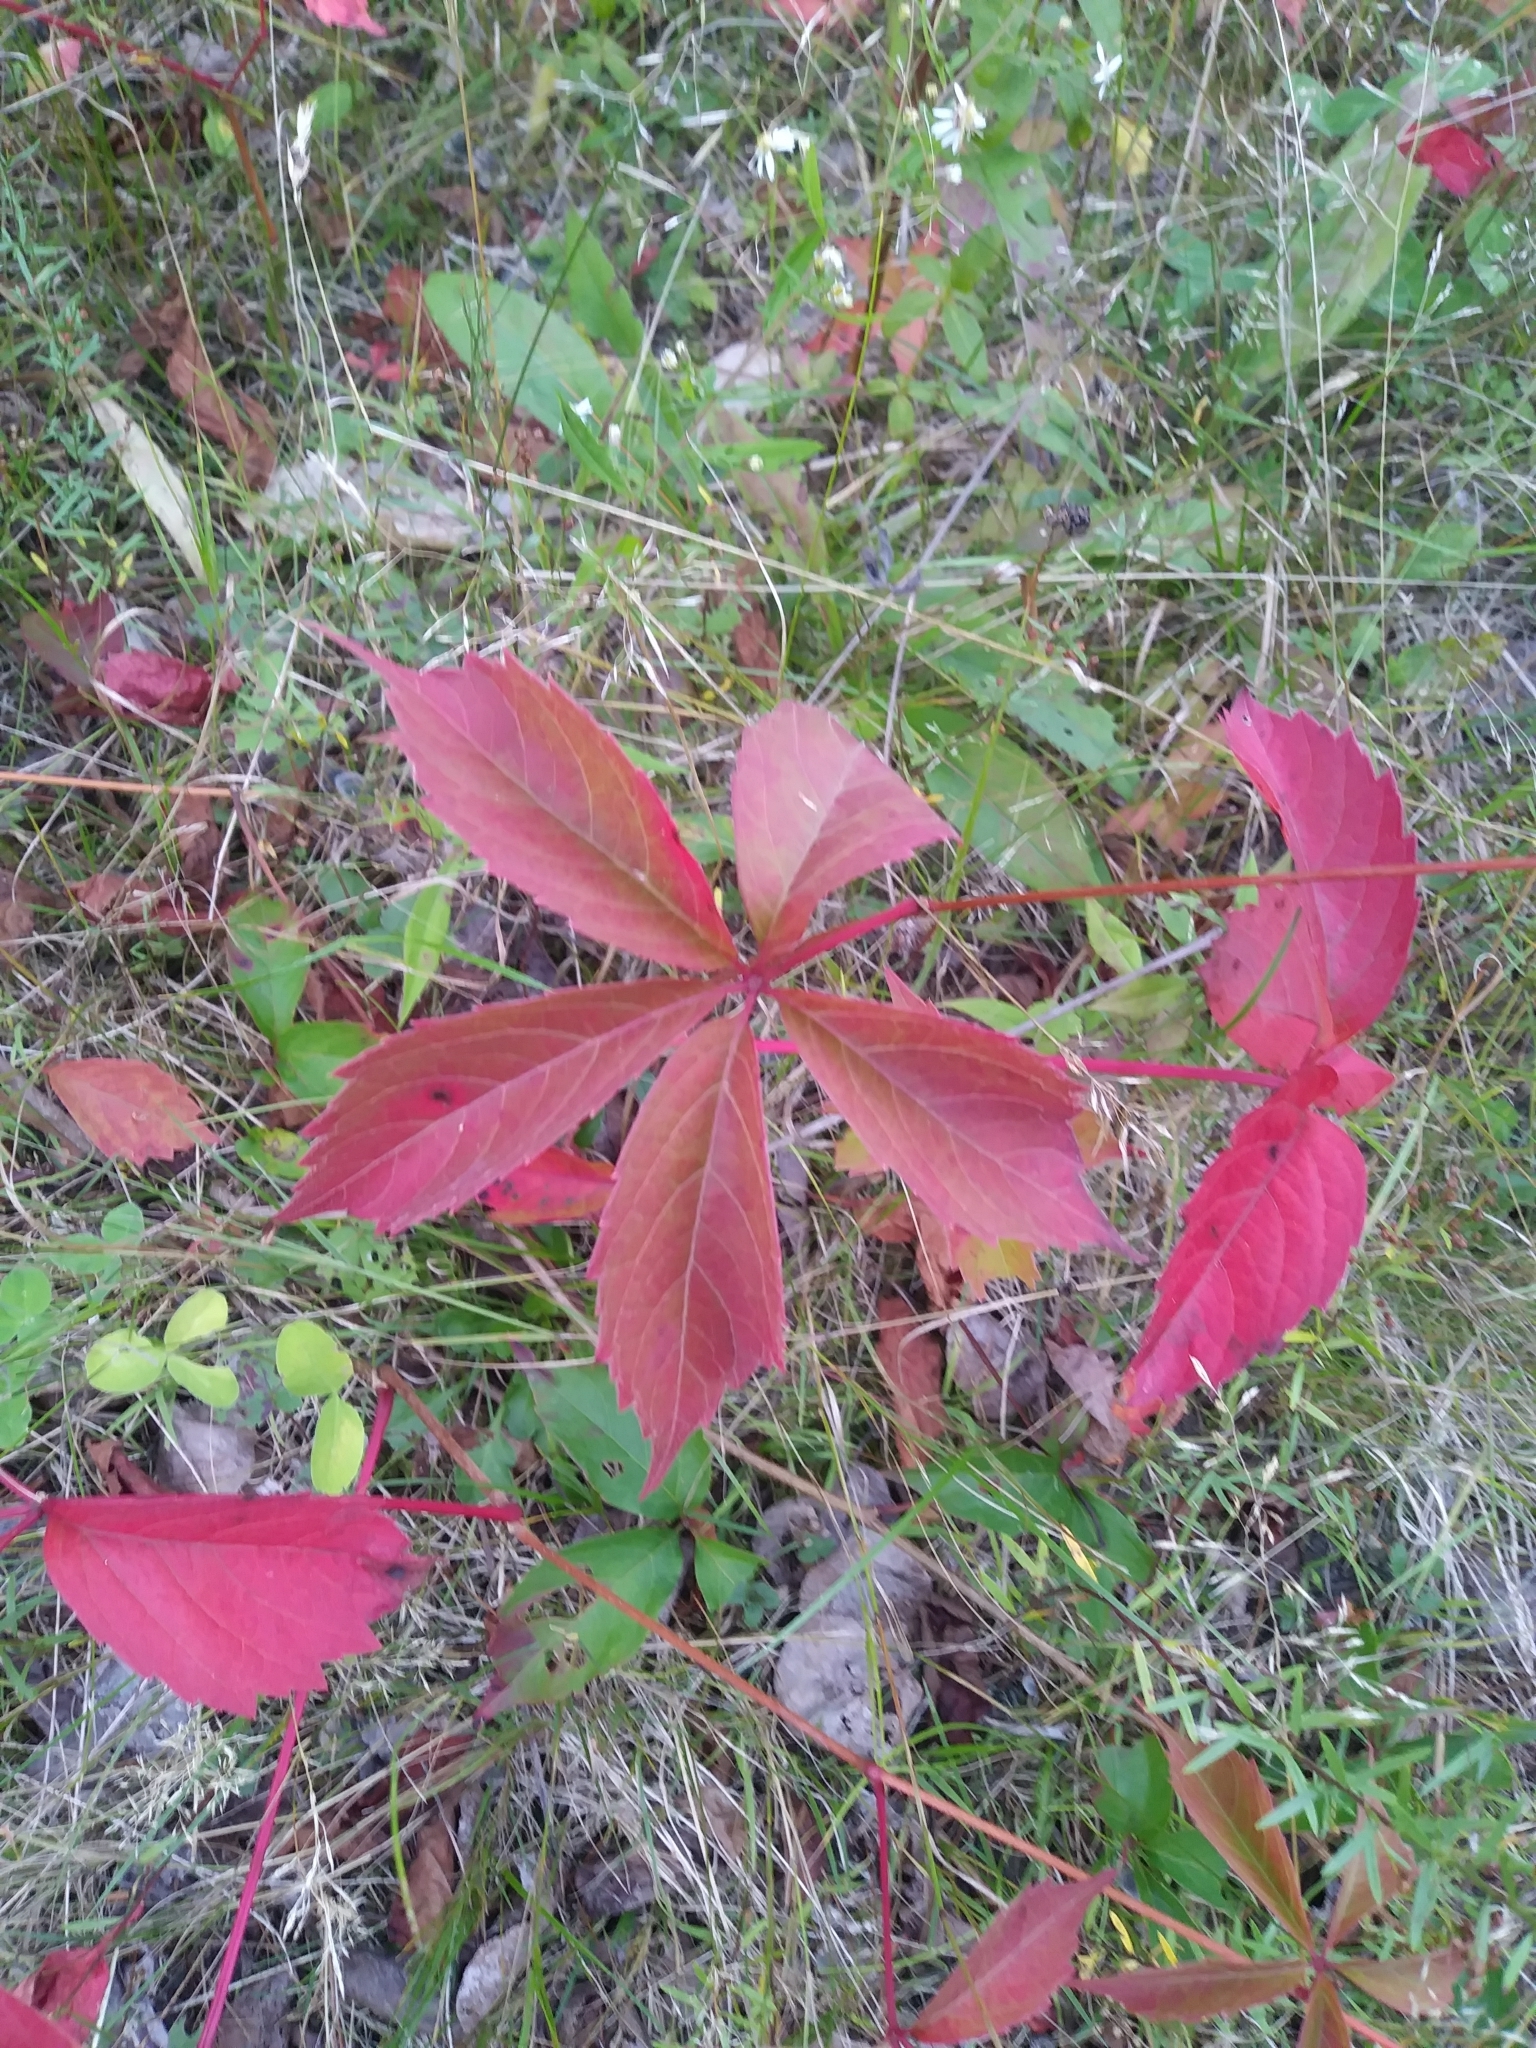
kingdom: Plantae
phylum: Tracheophyta
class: Magnoliopsida
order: Vitales
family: Vitaceae
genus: Parthenocissus
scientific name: Parthenocissus quinquefolia
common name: Virginia-creeper
